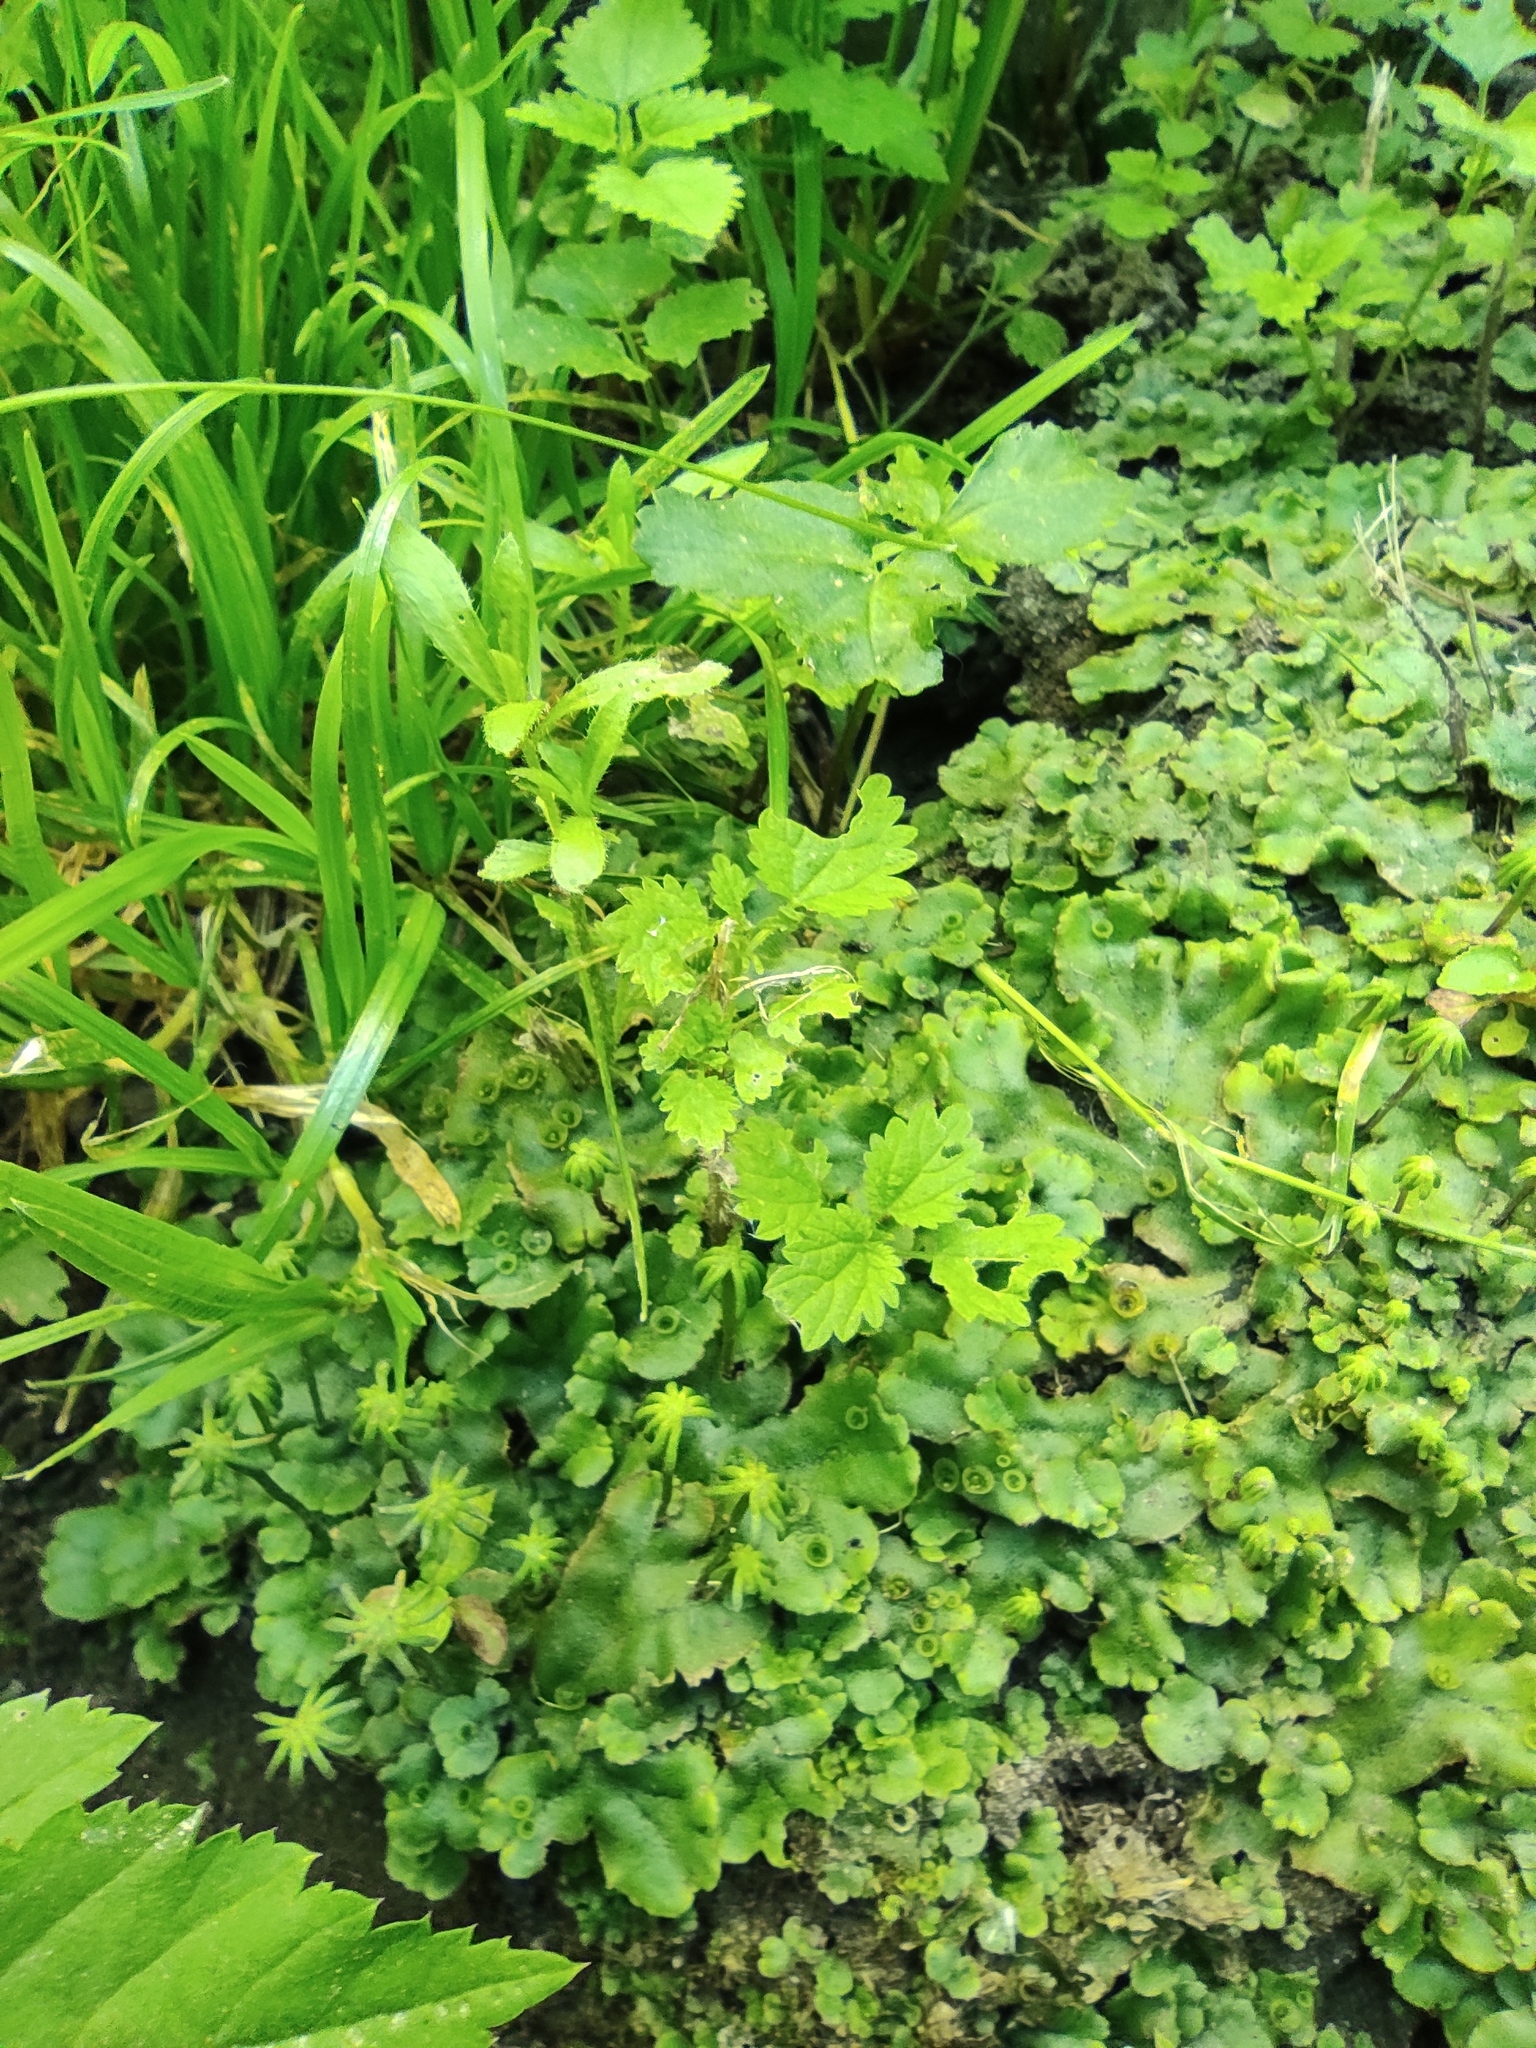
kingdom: Plantae
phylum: Marchantiophyta
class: Marchantiopsida
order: Marchantiales
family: Marchantiaceae
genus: Marchantia
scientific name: Marchantia polymorpha
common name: Common liverwort
